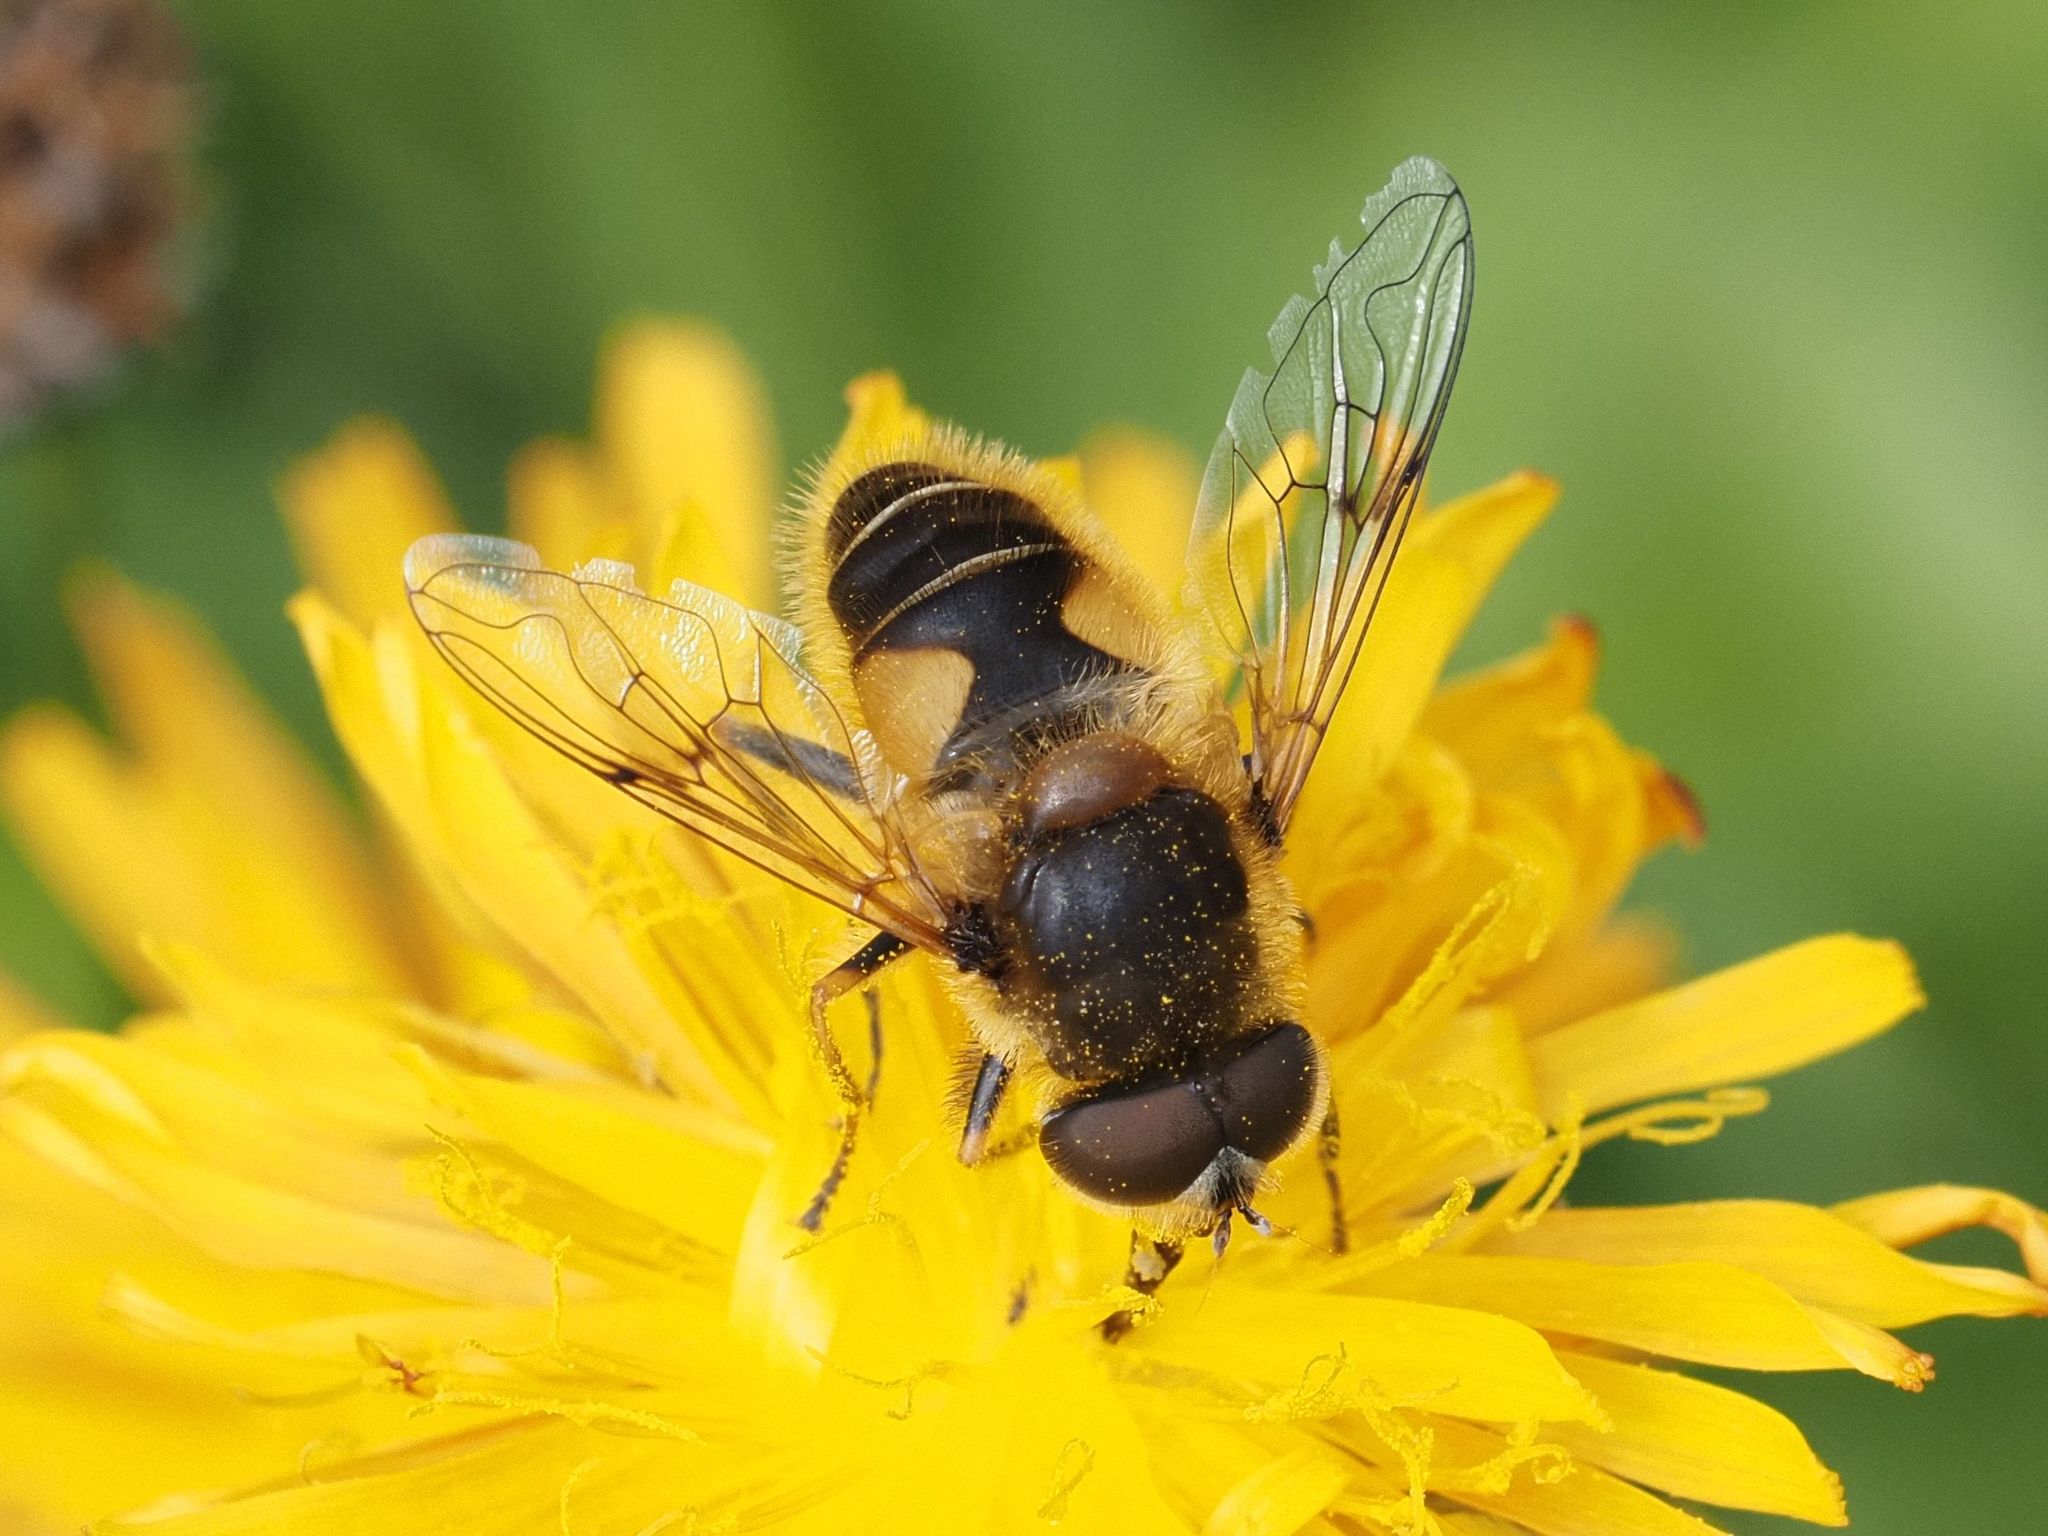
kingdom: Animalia
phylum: Arthropoda
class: Insecta
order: Diptera
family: Syrphidae
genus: Eristalis
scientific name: Eristalis jugorum
